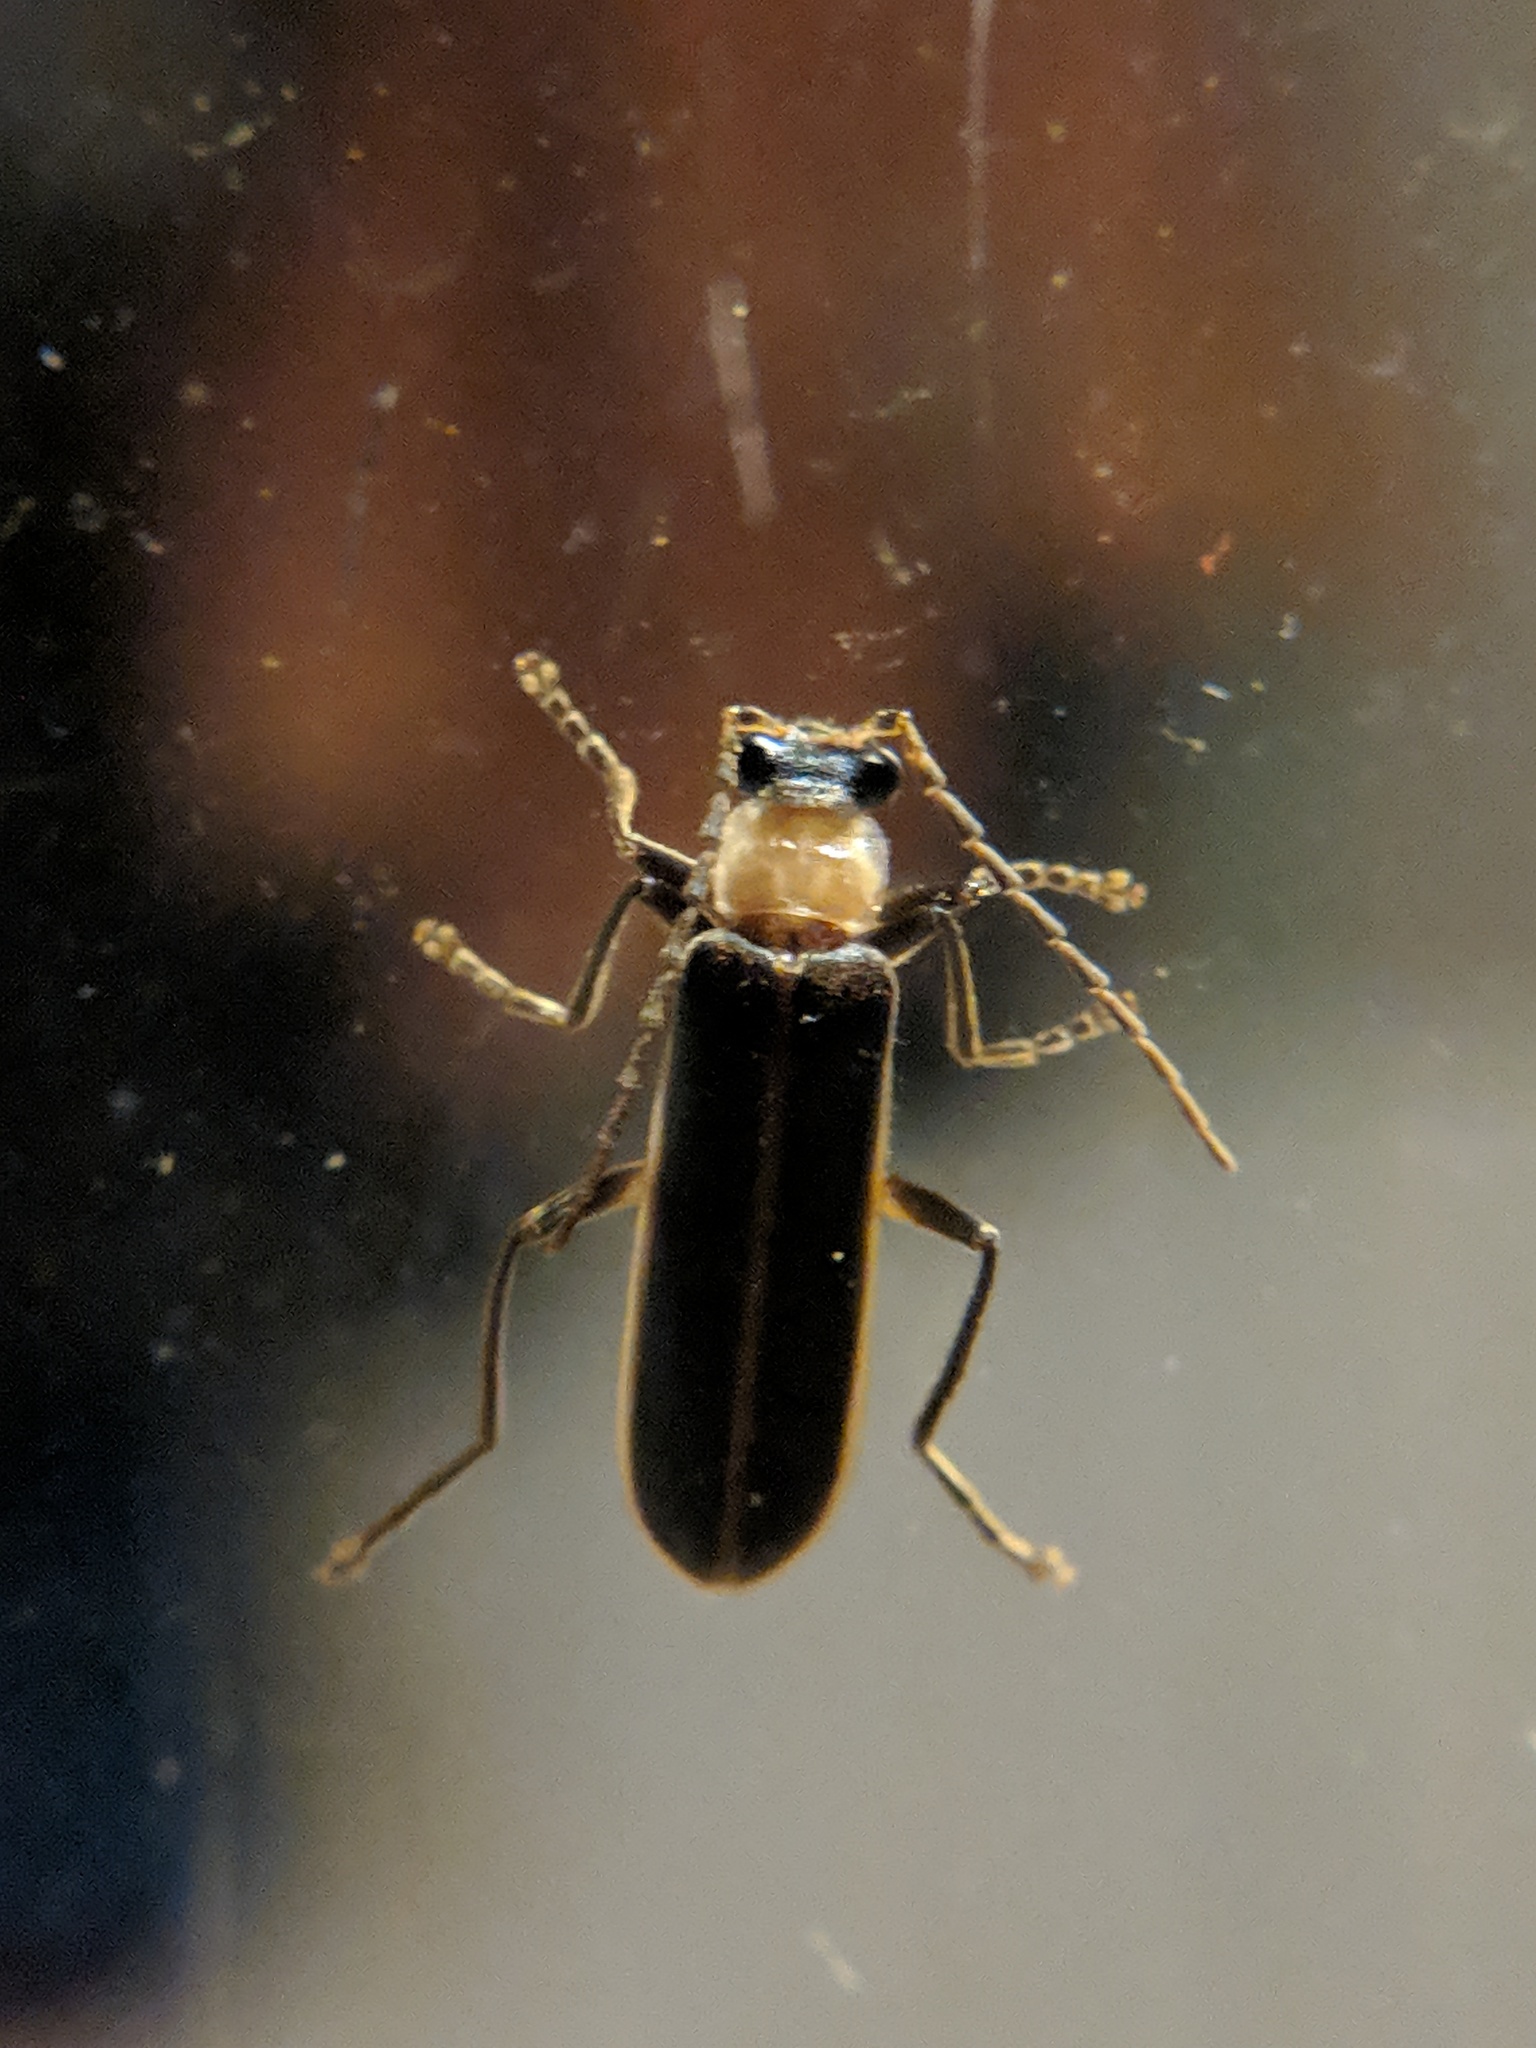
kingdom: Animalia
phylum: Arthropoda
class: Insecta
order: Coleoptera
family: Cantharidae
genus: Podabrus
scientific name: Podabrus flavicollis
